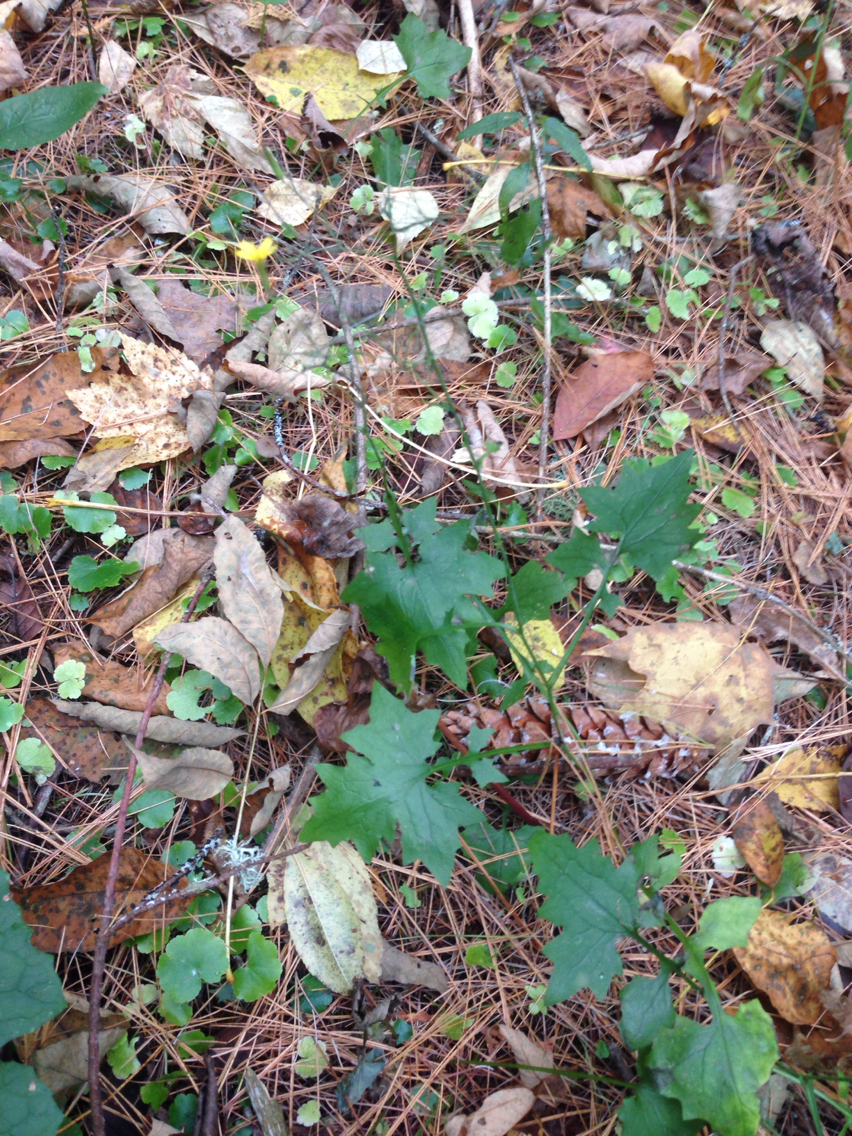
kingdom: Plantae
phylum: Tracheophyta
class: Magnoliopsida
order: Asterales
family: Asteraceae
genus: Mycelis
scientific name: Mycelis muralis
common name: Wall lettuce
